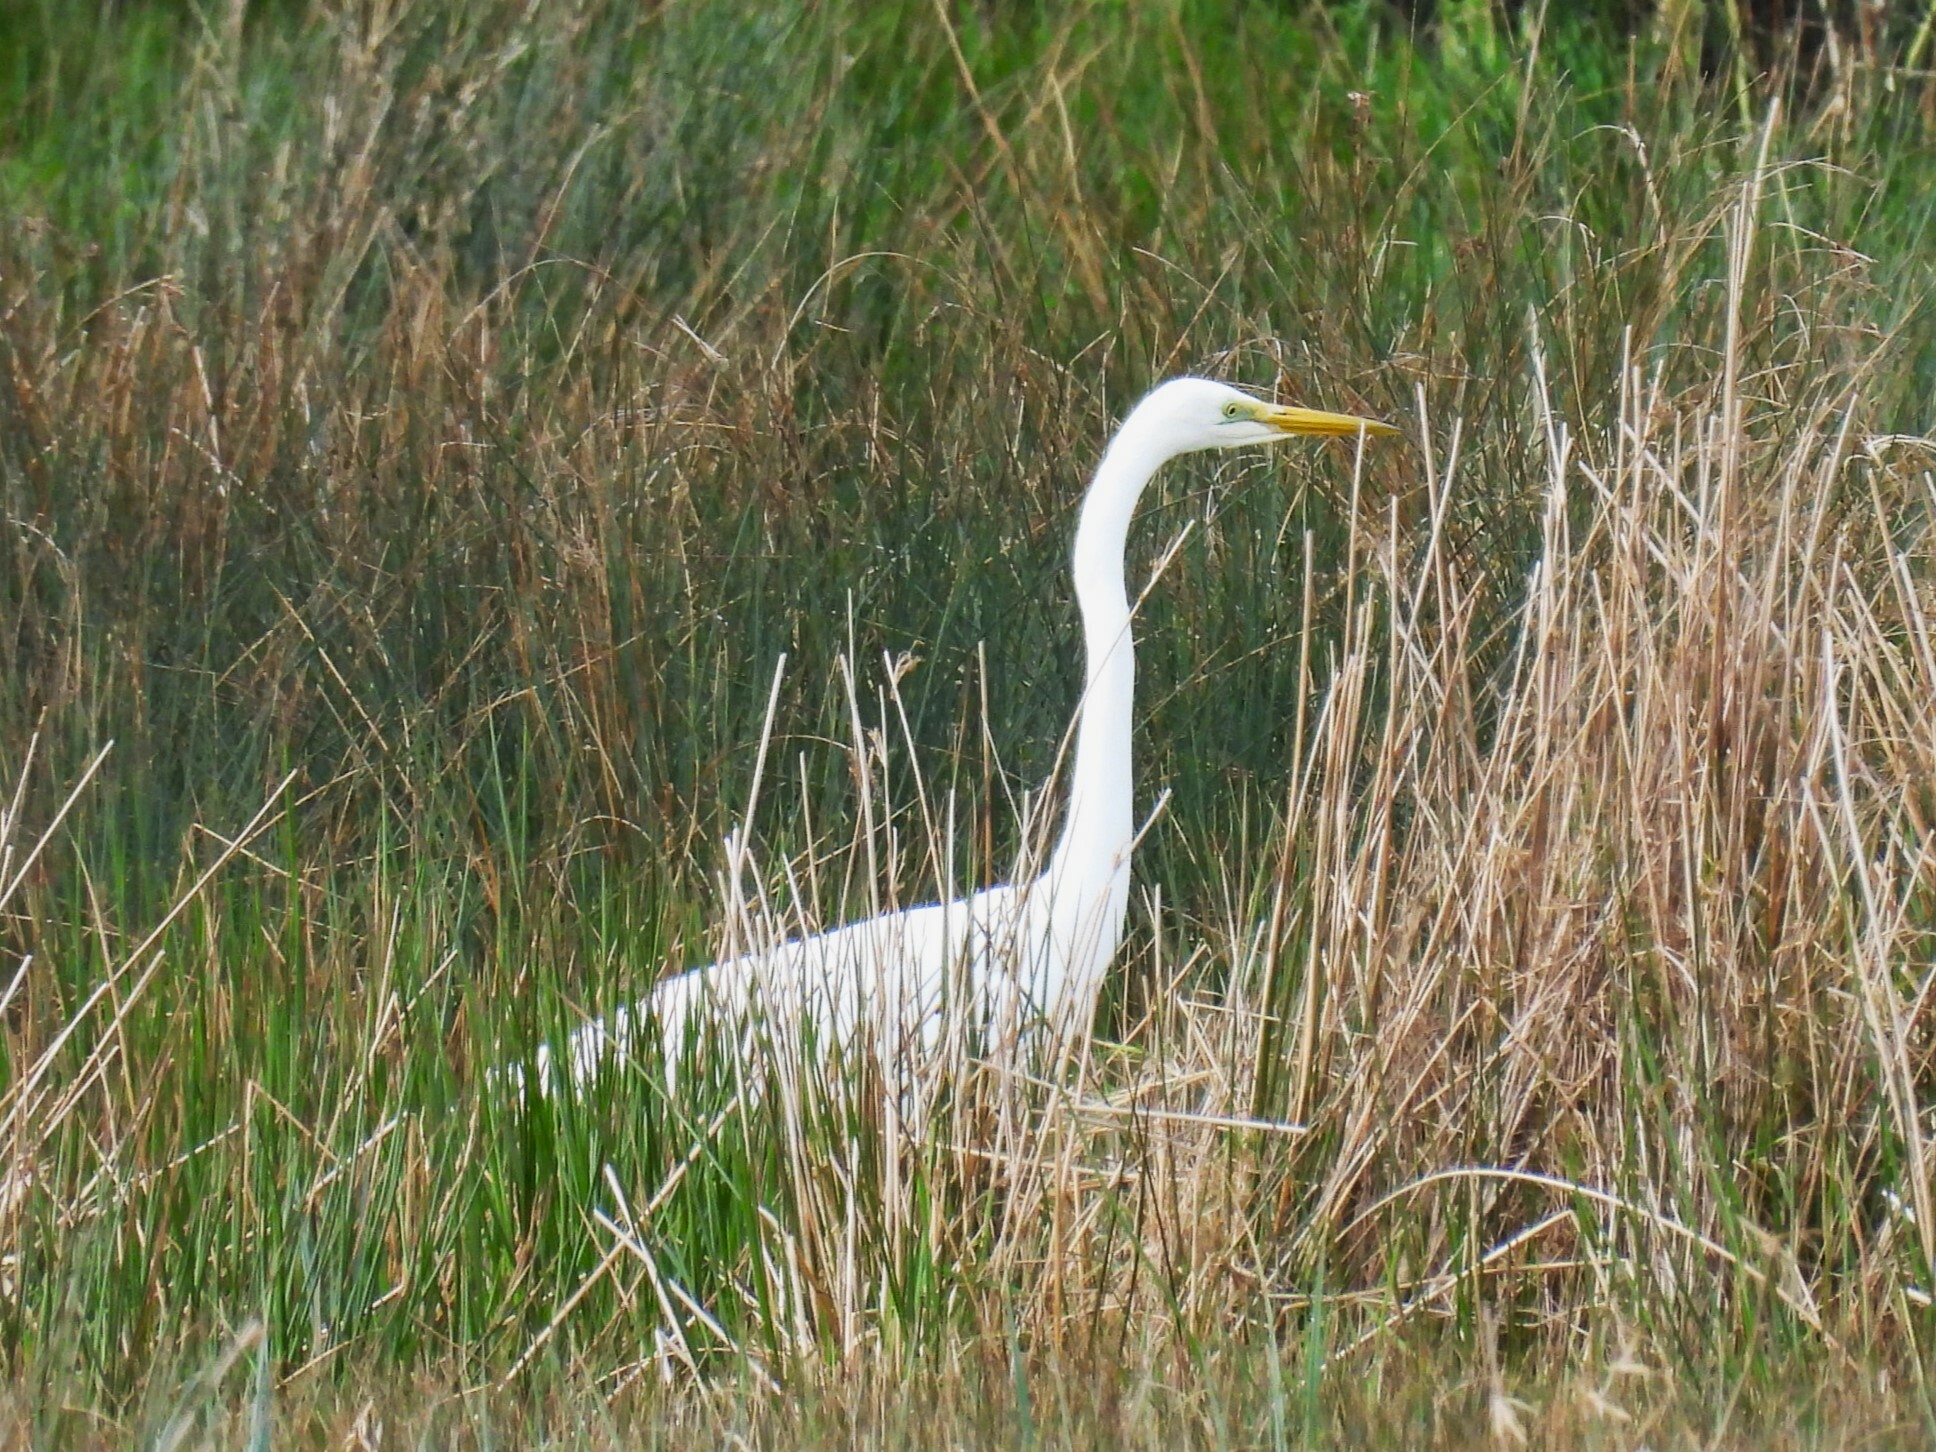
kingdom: Animalia
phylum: Chordata
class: Aves
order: Pelecaniformes
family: Ardeidae
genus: Ardea
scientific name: Ardea alba
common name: Great egret
